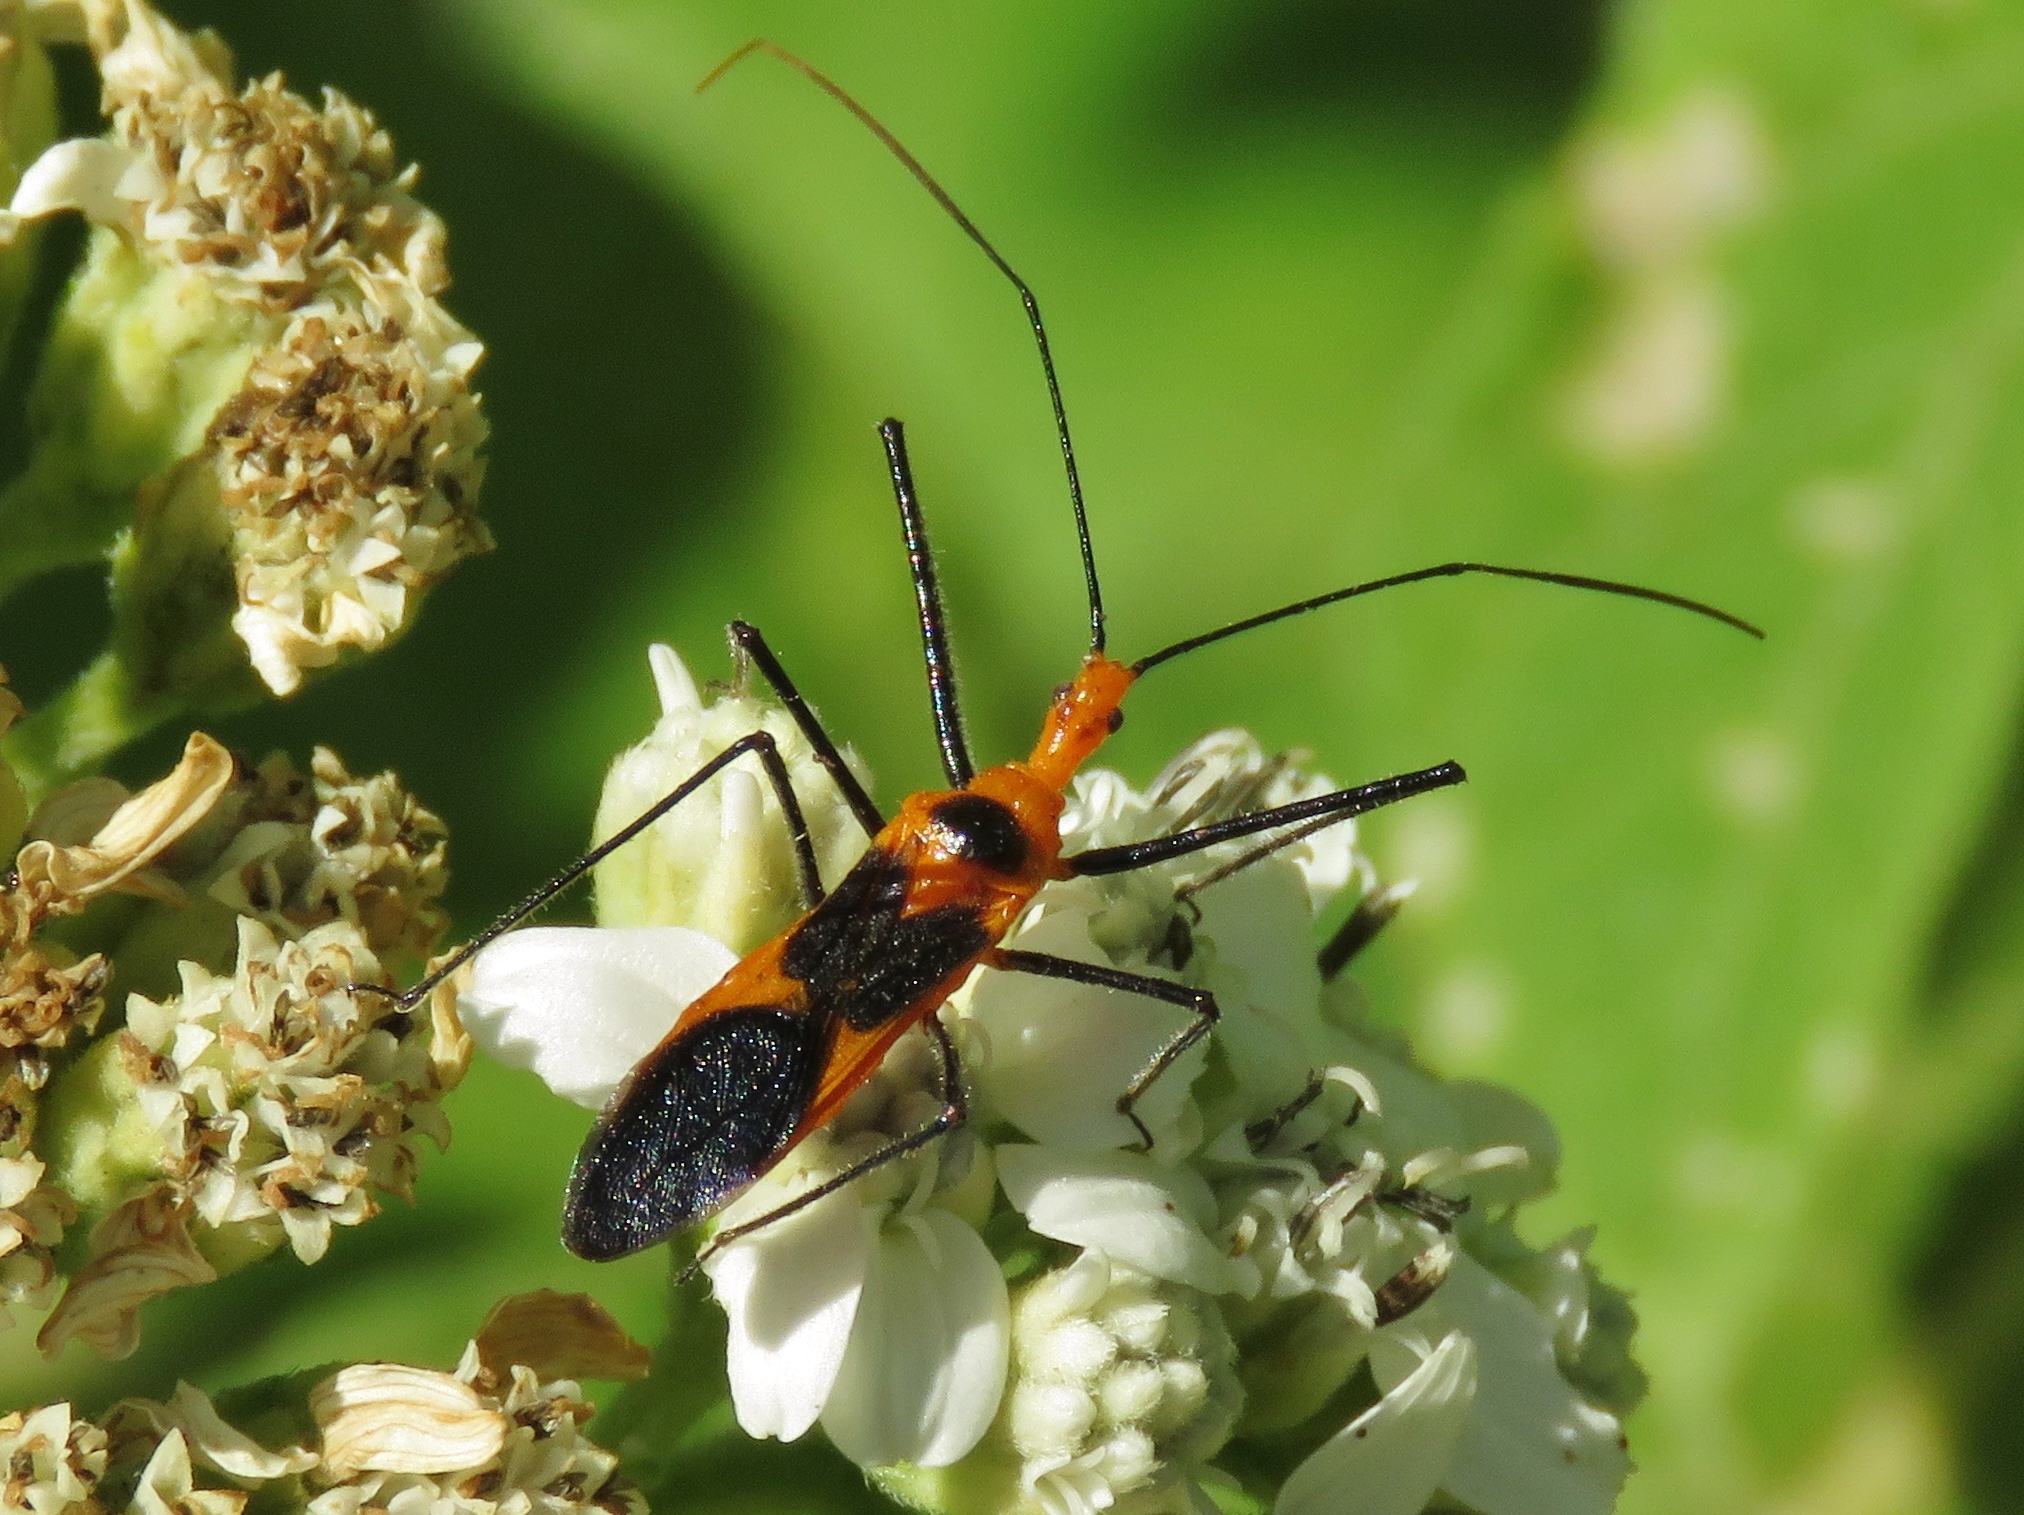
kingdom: Animalia
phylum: Arthropoda
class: Insecta
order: Hemiptera
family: Reduviidae
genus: Zelus
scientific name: Zelus longipes
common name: Milkweed assassin bug
